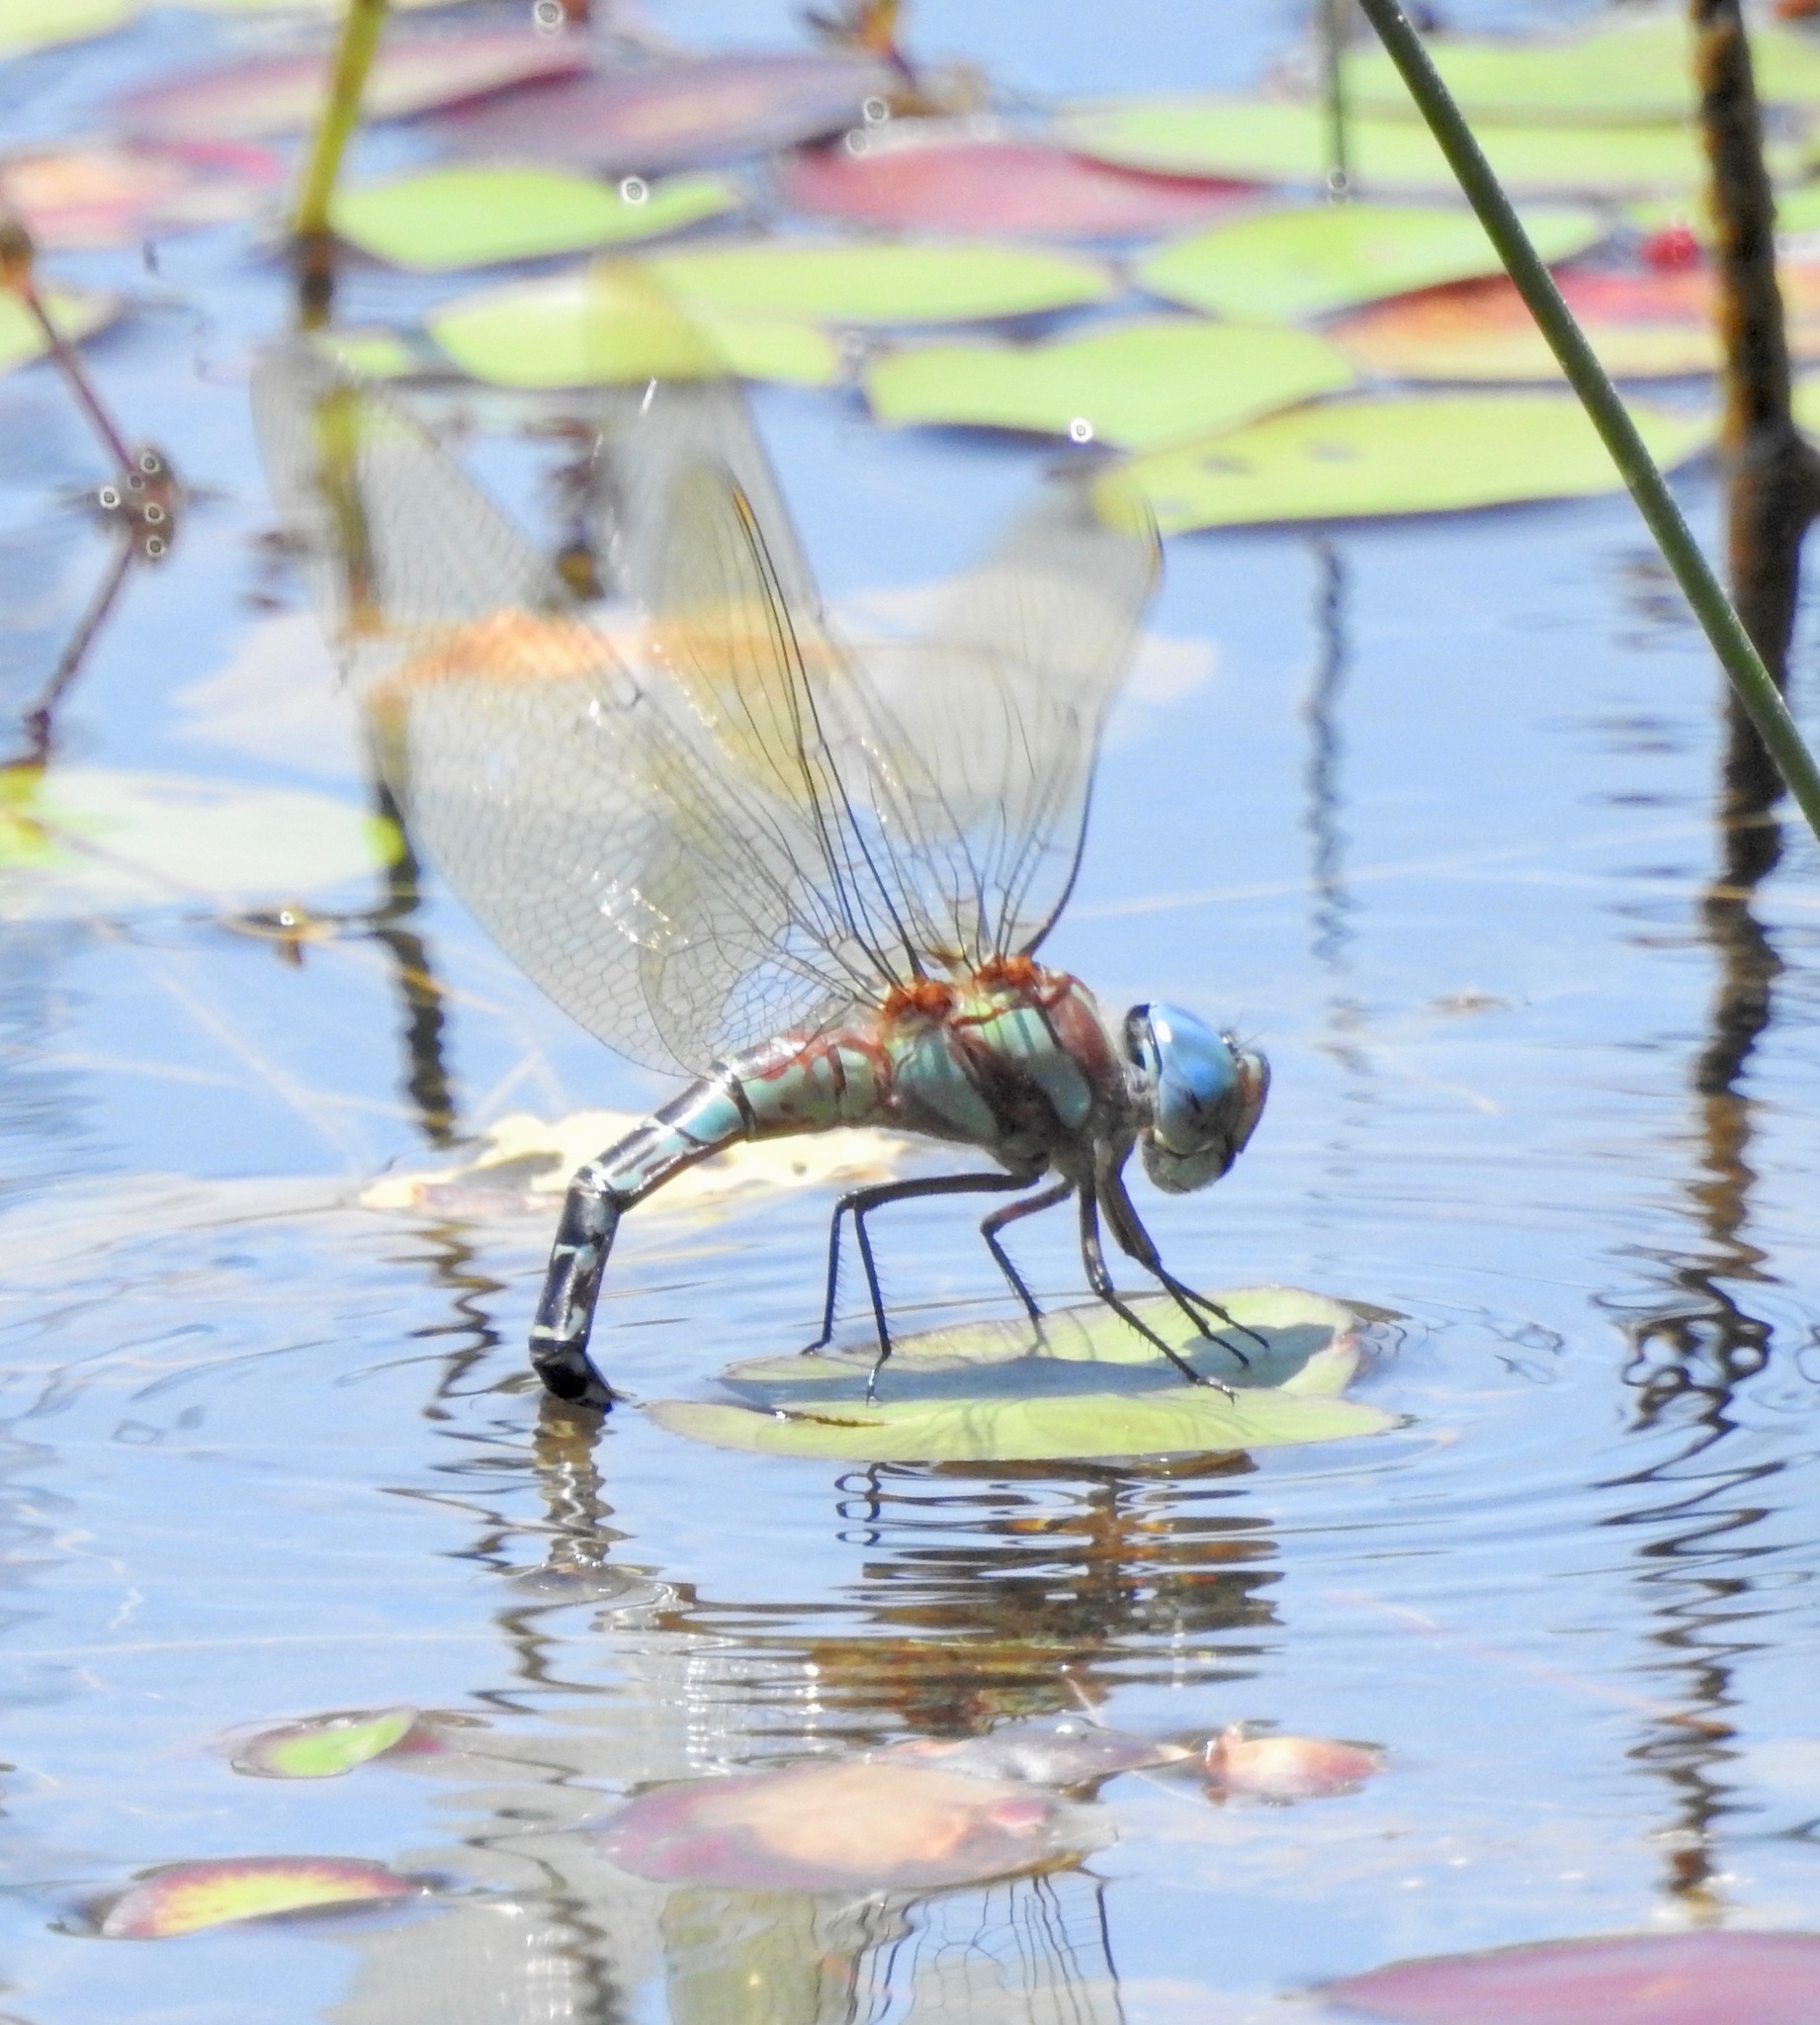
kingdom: Animalia
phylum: Arthropoda
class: Insecta
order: Odonata
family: Aeshnidae
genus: Coryphaeschna
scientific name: Coryphaeschna ingens
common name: Regal darner
